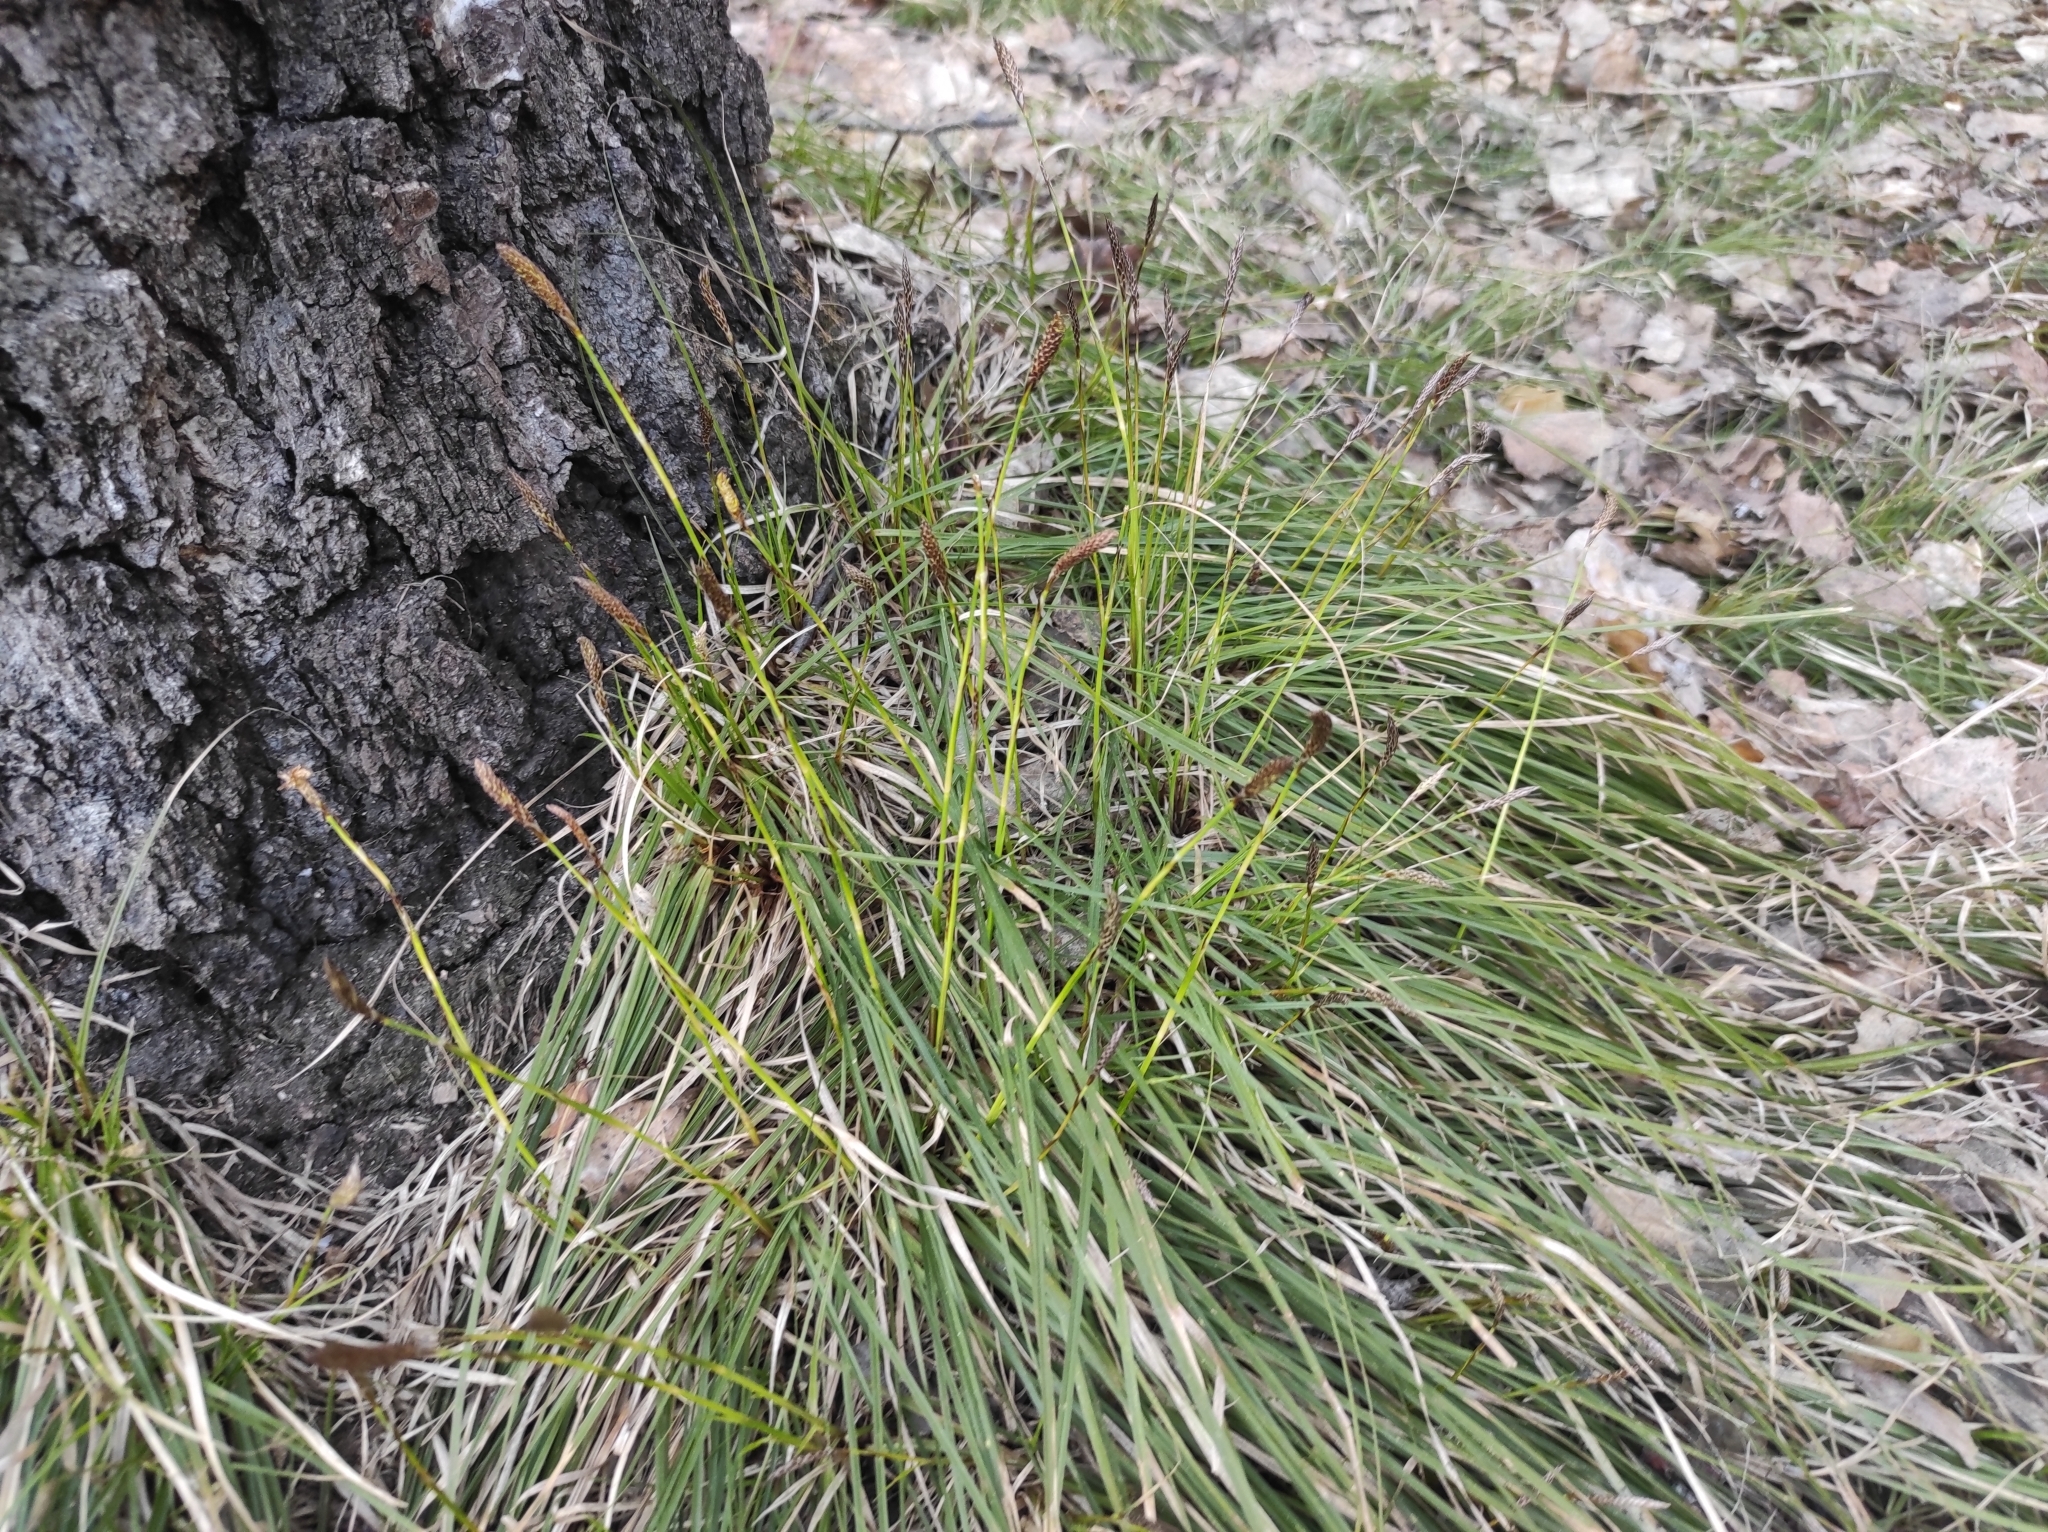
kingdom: Plantae
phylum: Tracheophyta
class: Liliopsida
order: Poales
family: Cyperaceae
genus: Carex
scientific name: Carex pediformis
